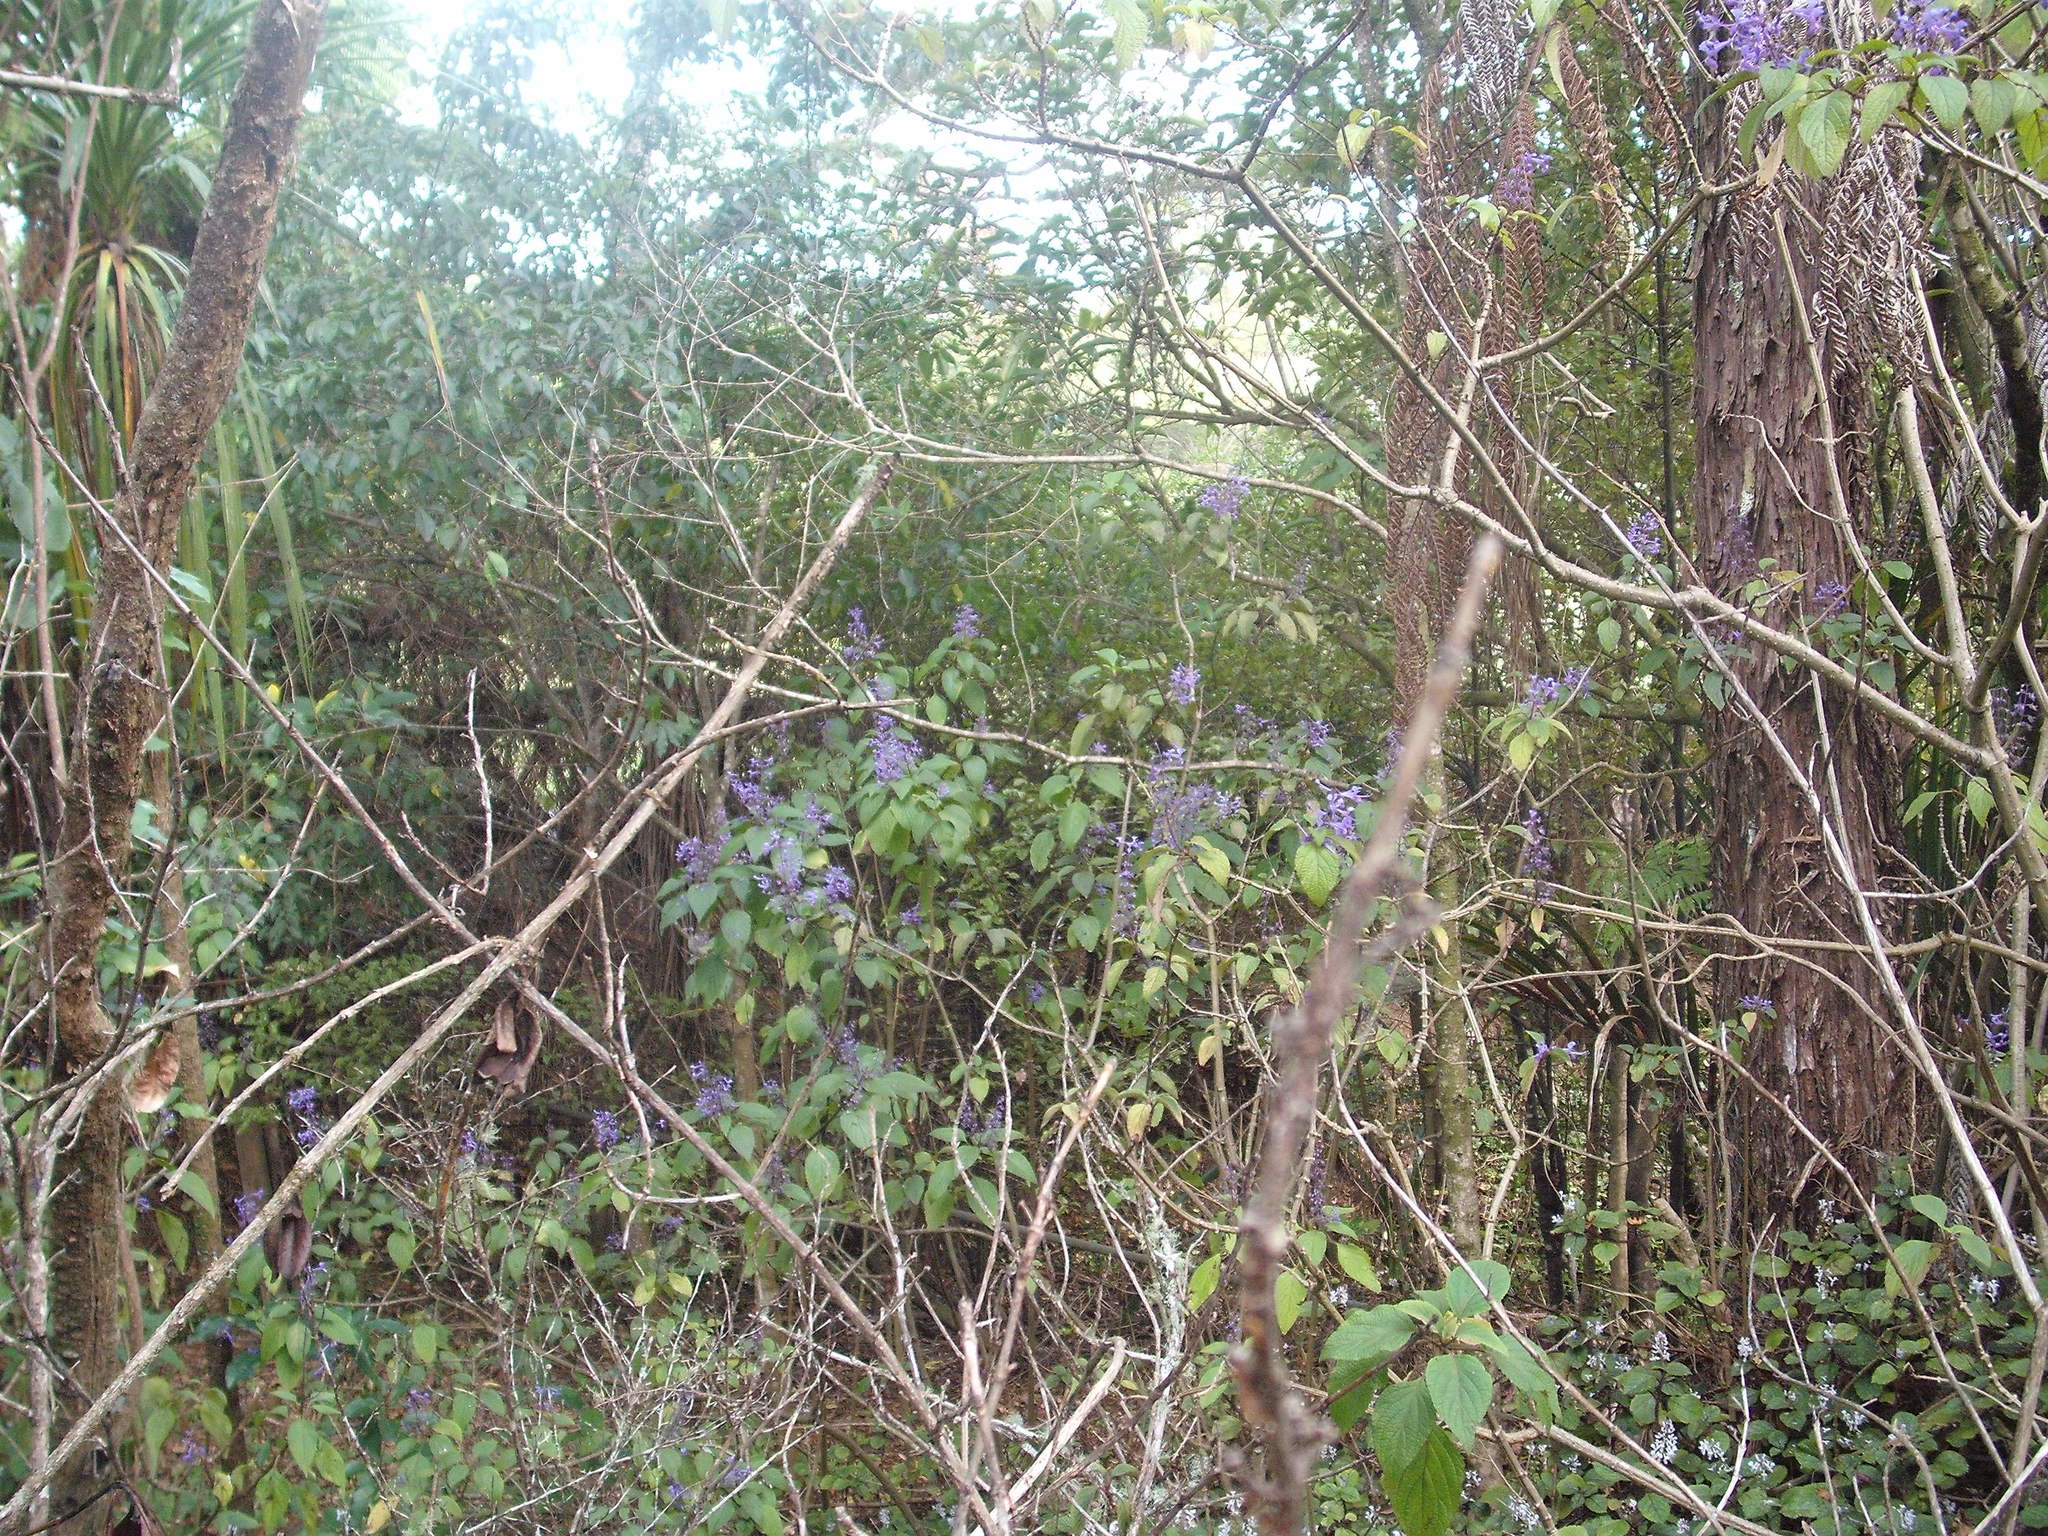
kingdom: Plantae
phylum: Tracheophyta
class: Magnoliopsida
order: Lamiales
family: Lamiaceae
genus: Plectranthus
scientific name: Plectranthus ecklonii
